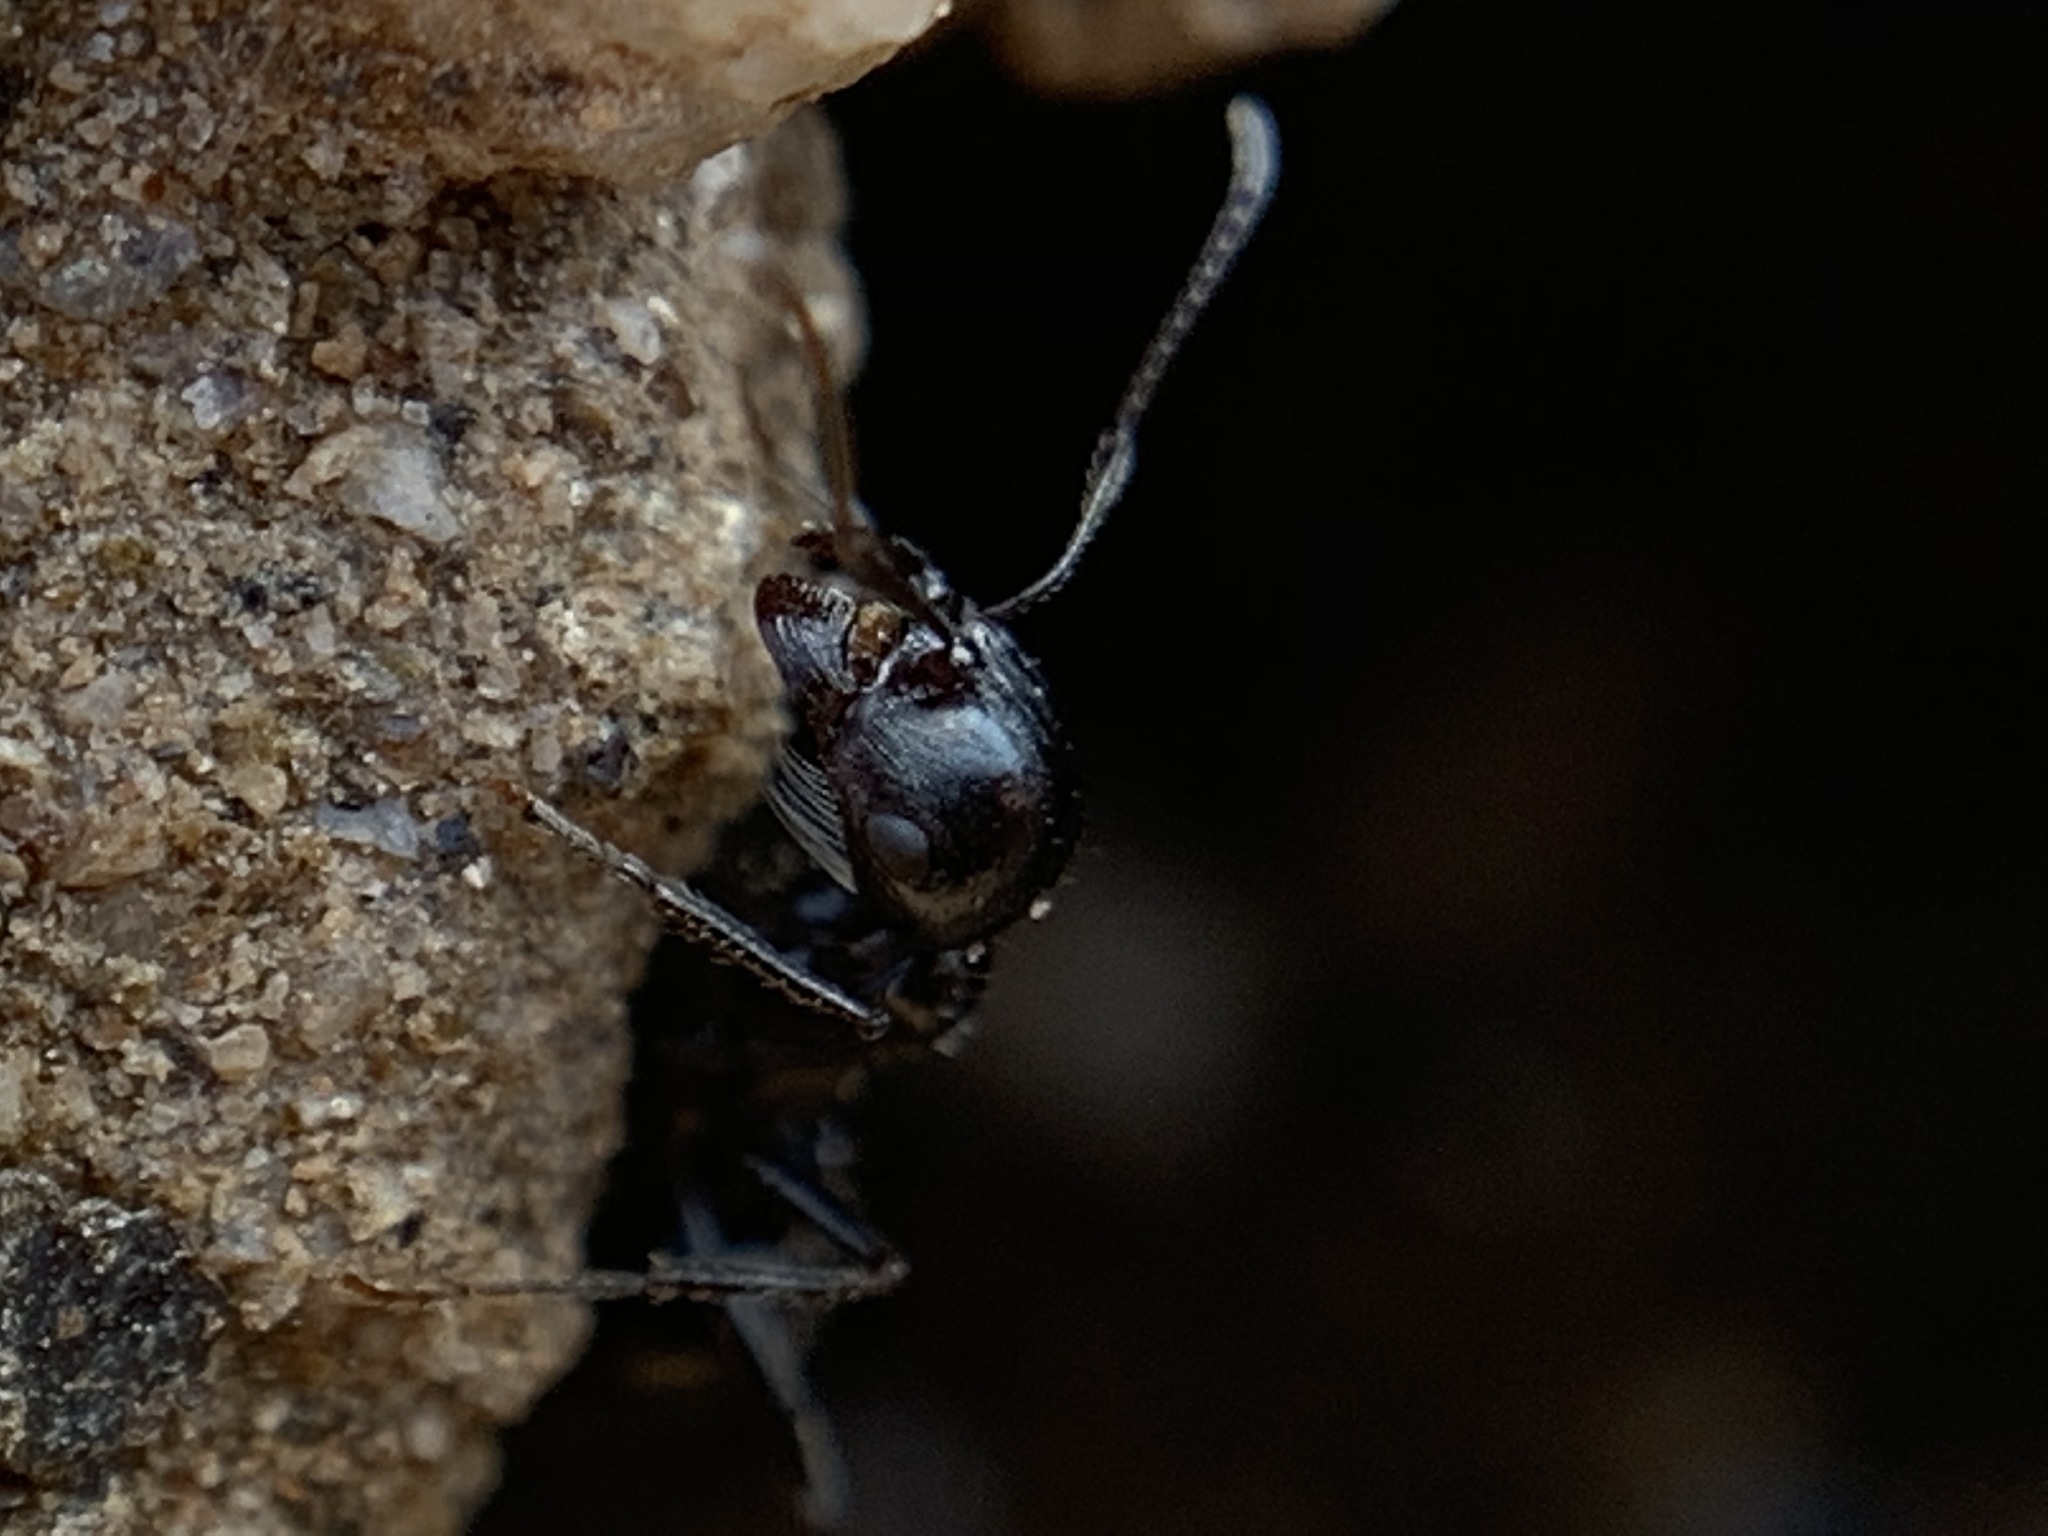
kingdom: Animalia
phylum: Arthropoda
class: Insecta
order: Hymenoptera
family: Formicidae
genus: Messor
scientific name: Messor pergandei
